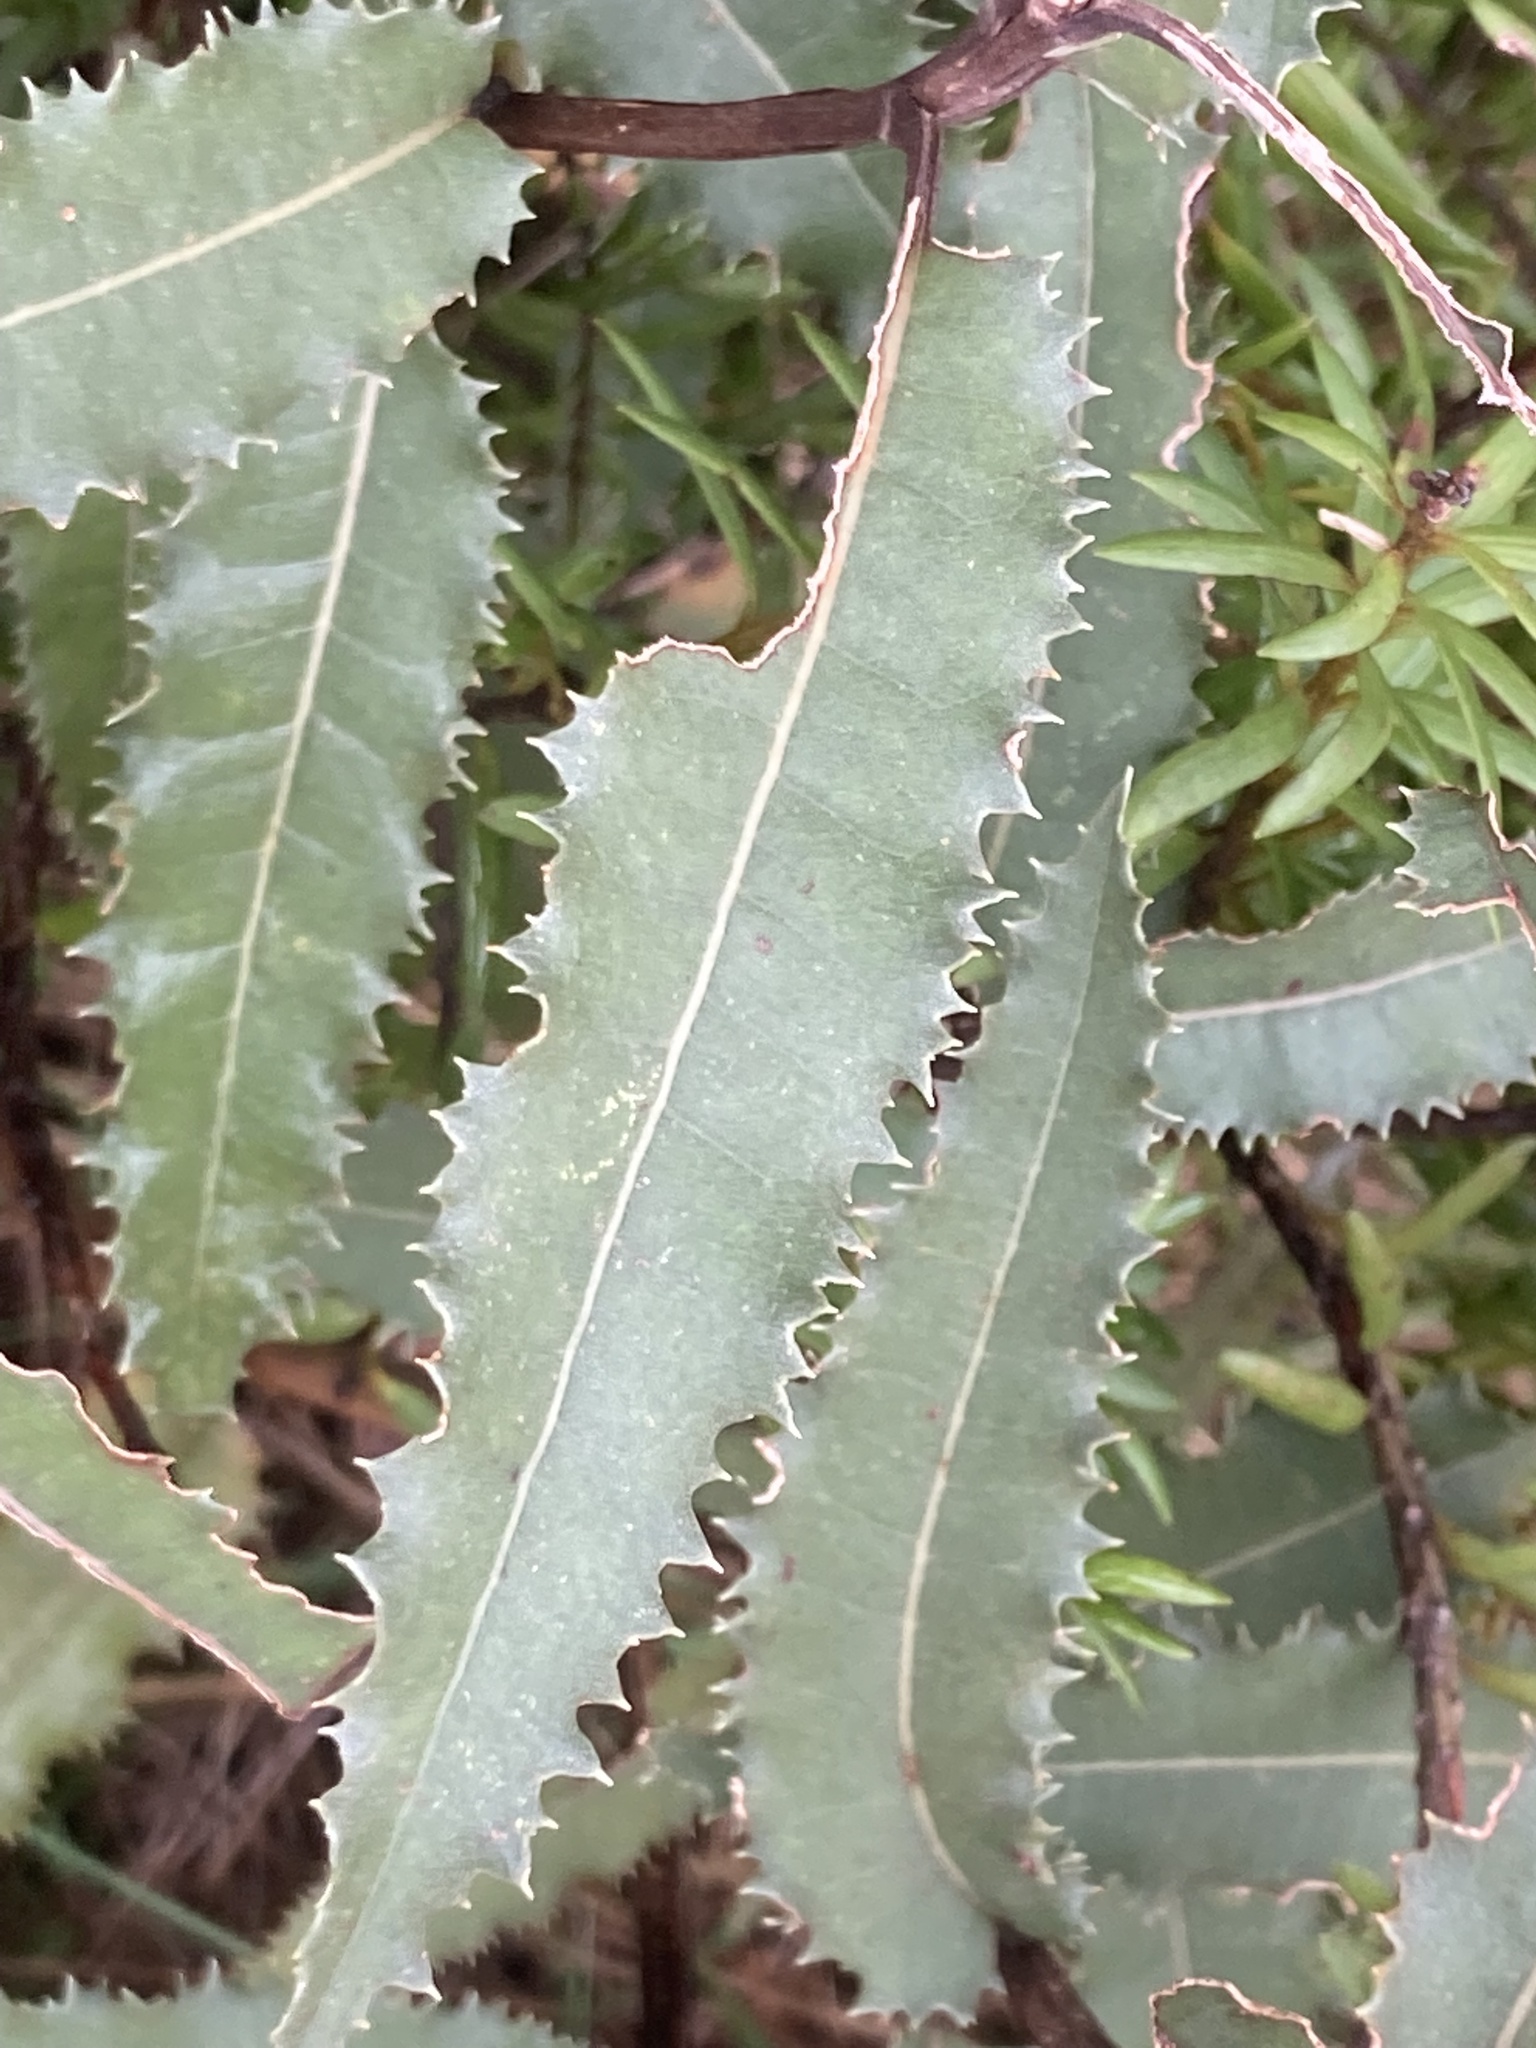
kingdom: Plantae
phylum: Tracheophyta
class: Magnoliopsida
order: Asterales
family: Asteraceae
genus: Olearia
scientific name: Olearia ilicifolia
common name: Maori-holly
